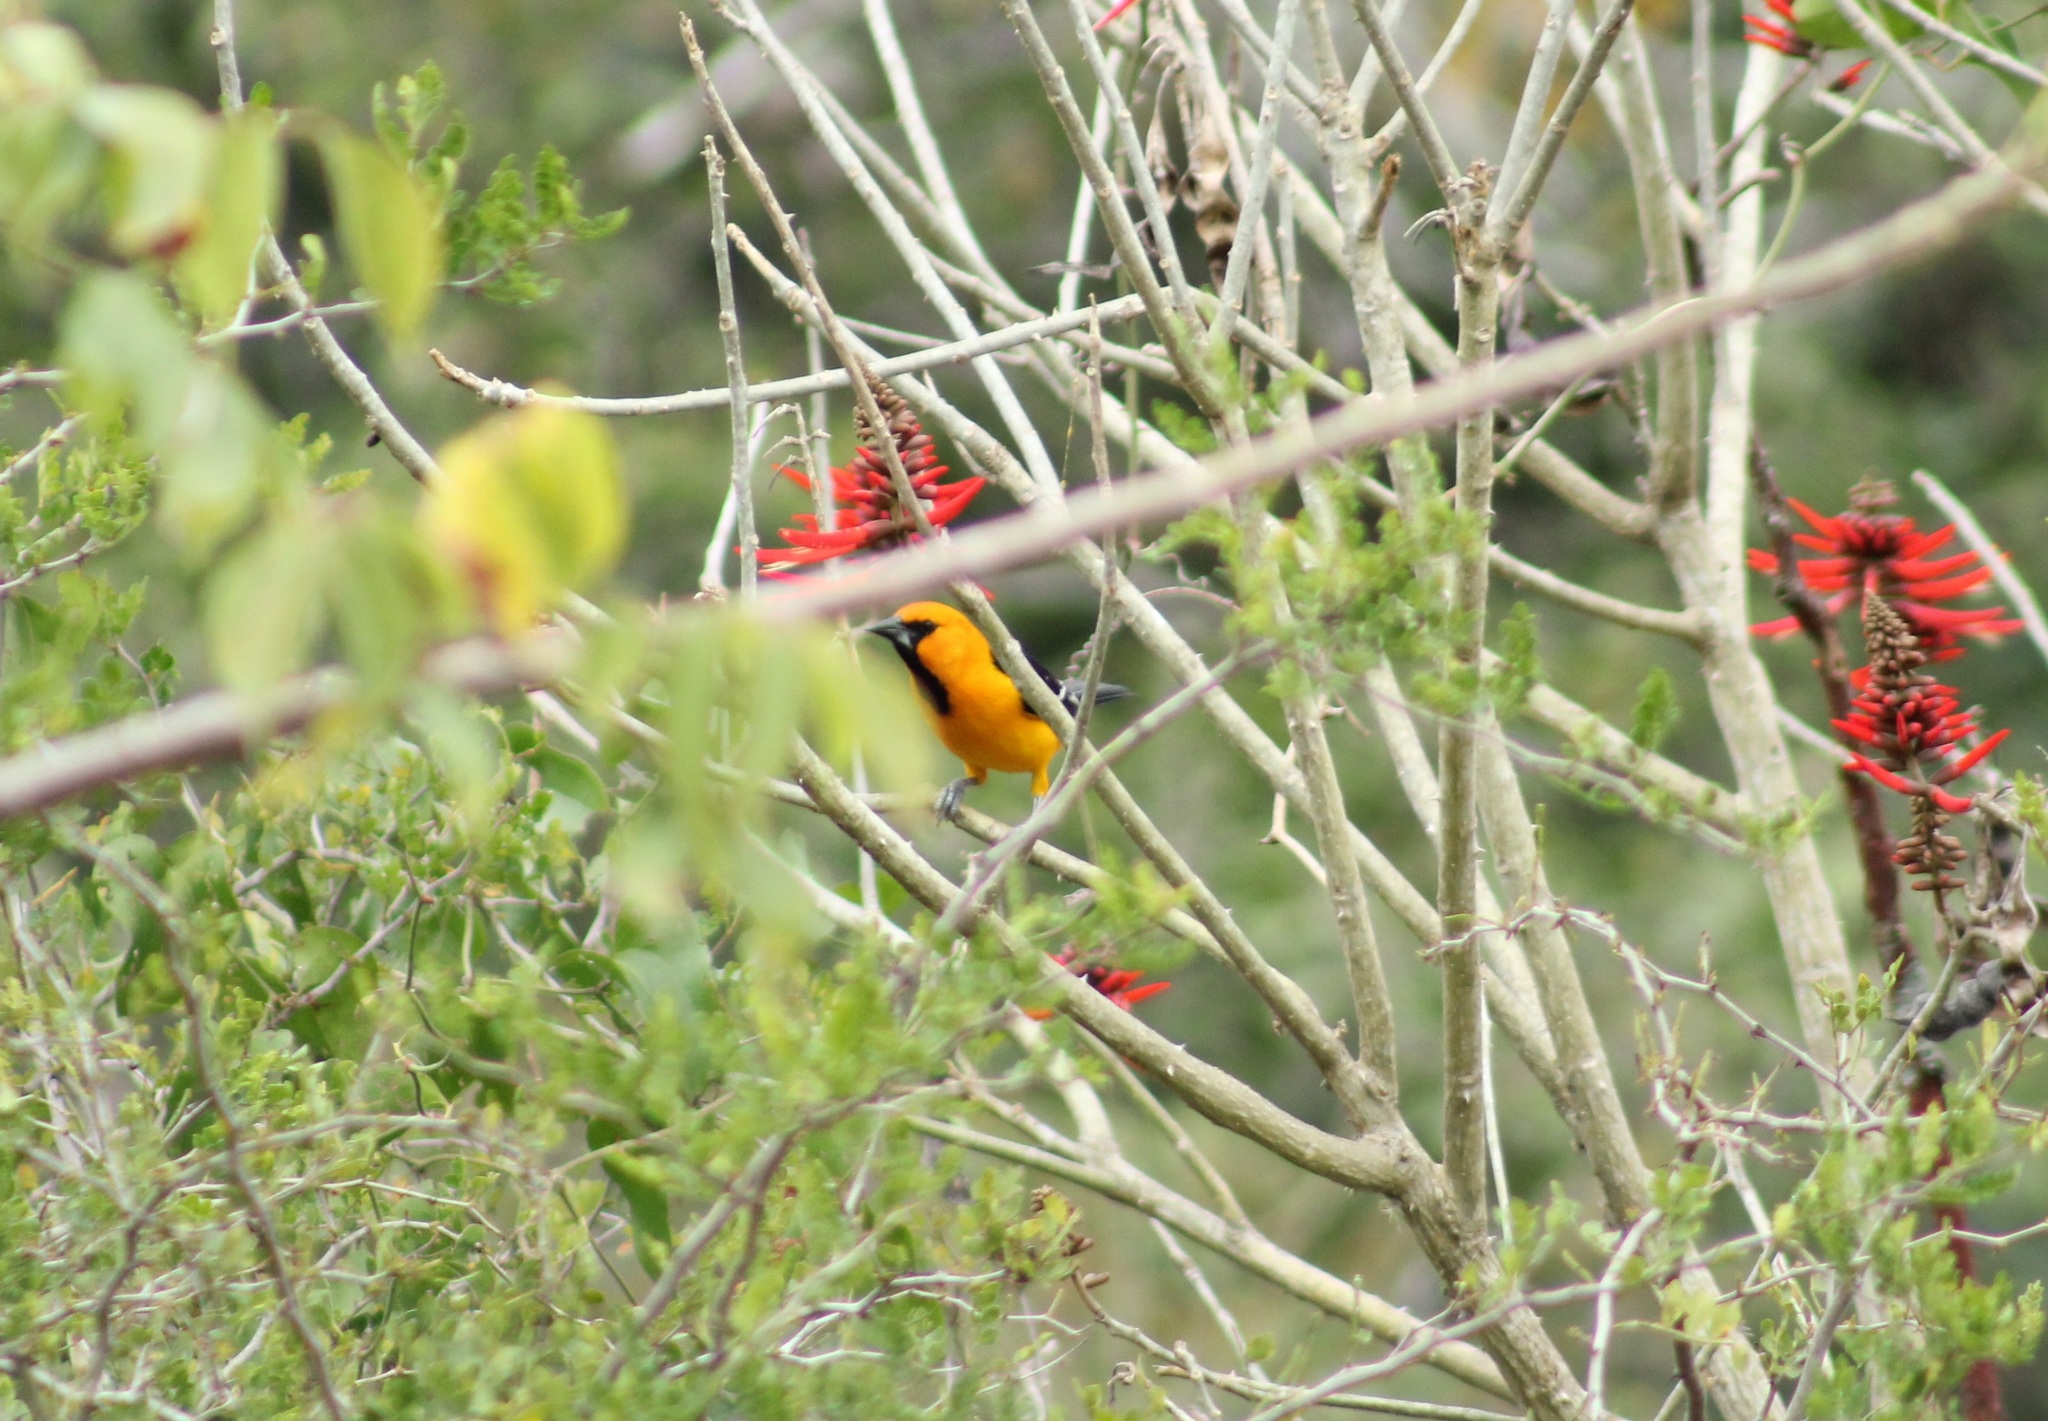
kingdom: Animalia
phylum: Chordata
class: Aves
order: Passeriformes
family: Icteridae
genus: Icterus
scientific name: Icterus gularis
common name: Altamira oriole
